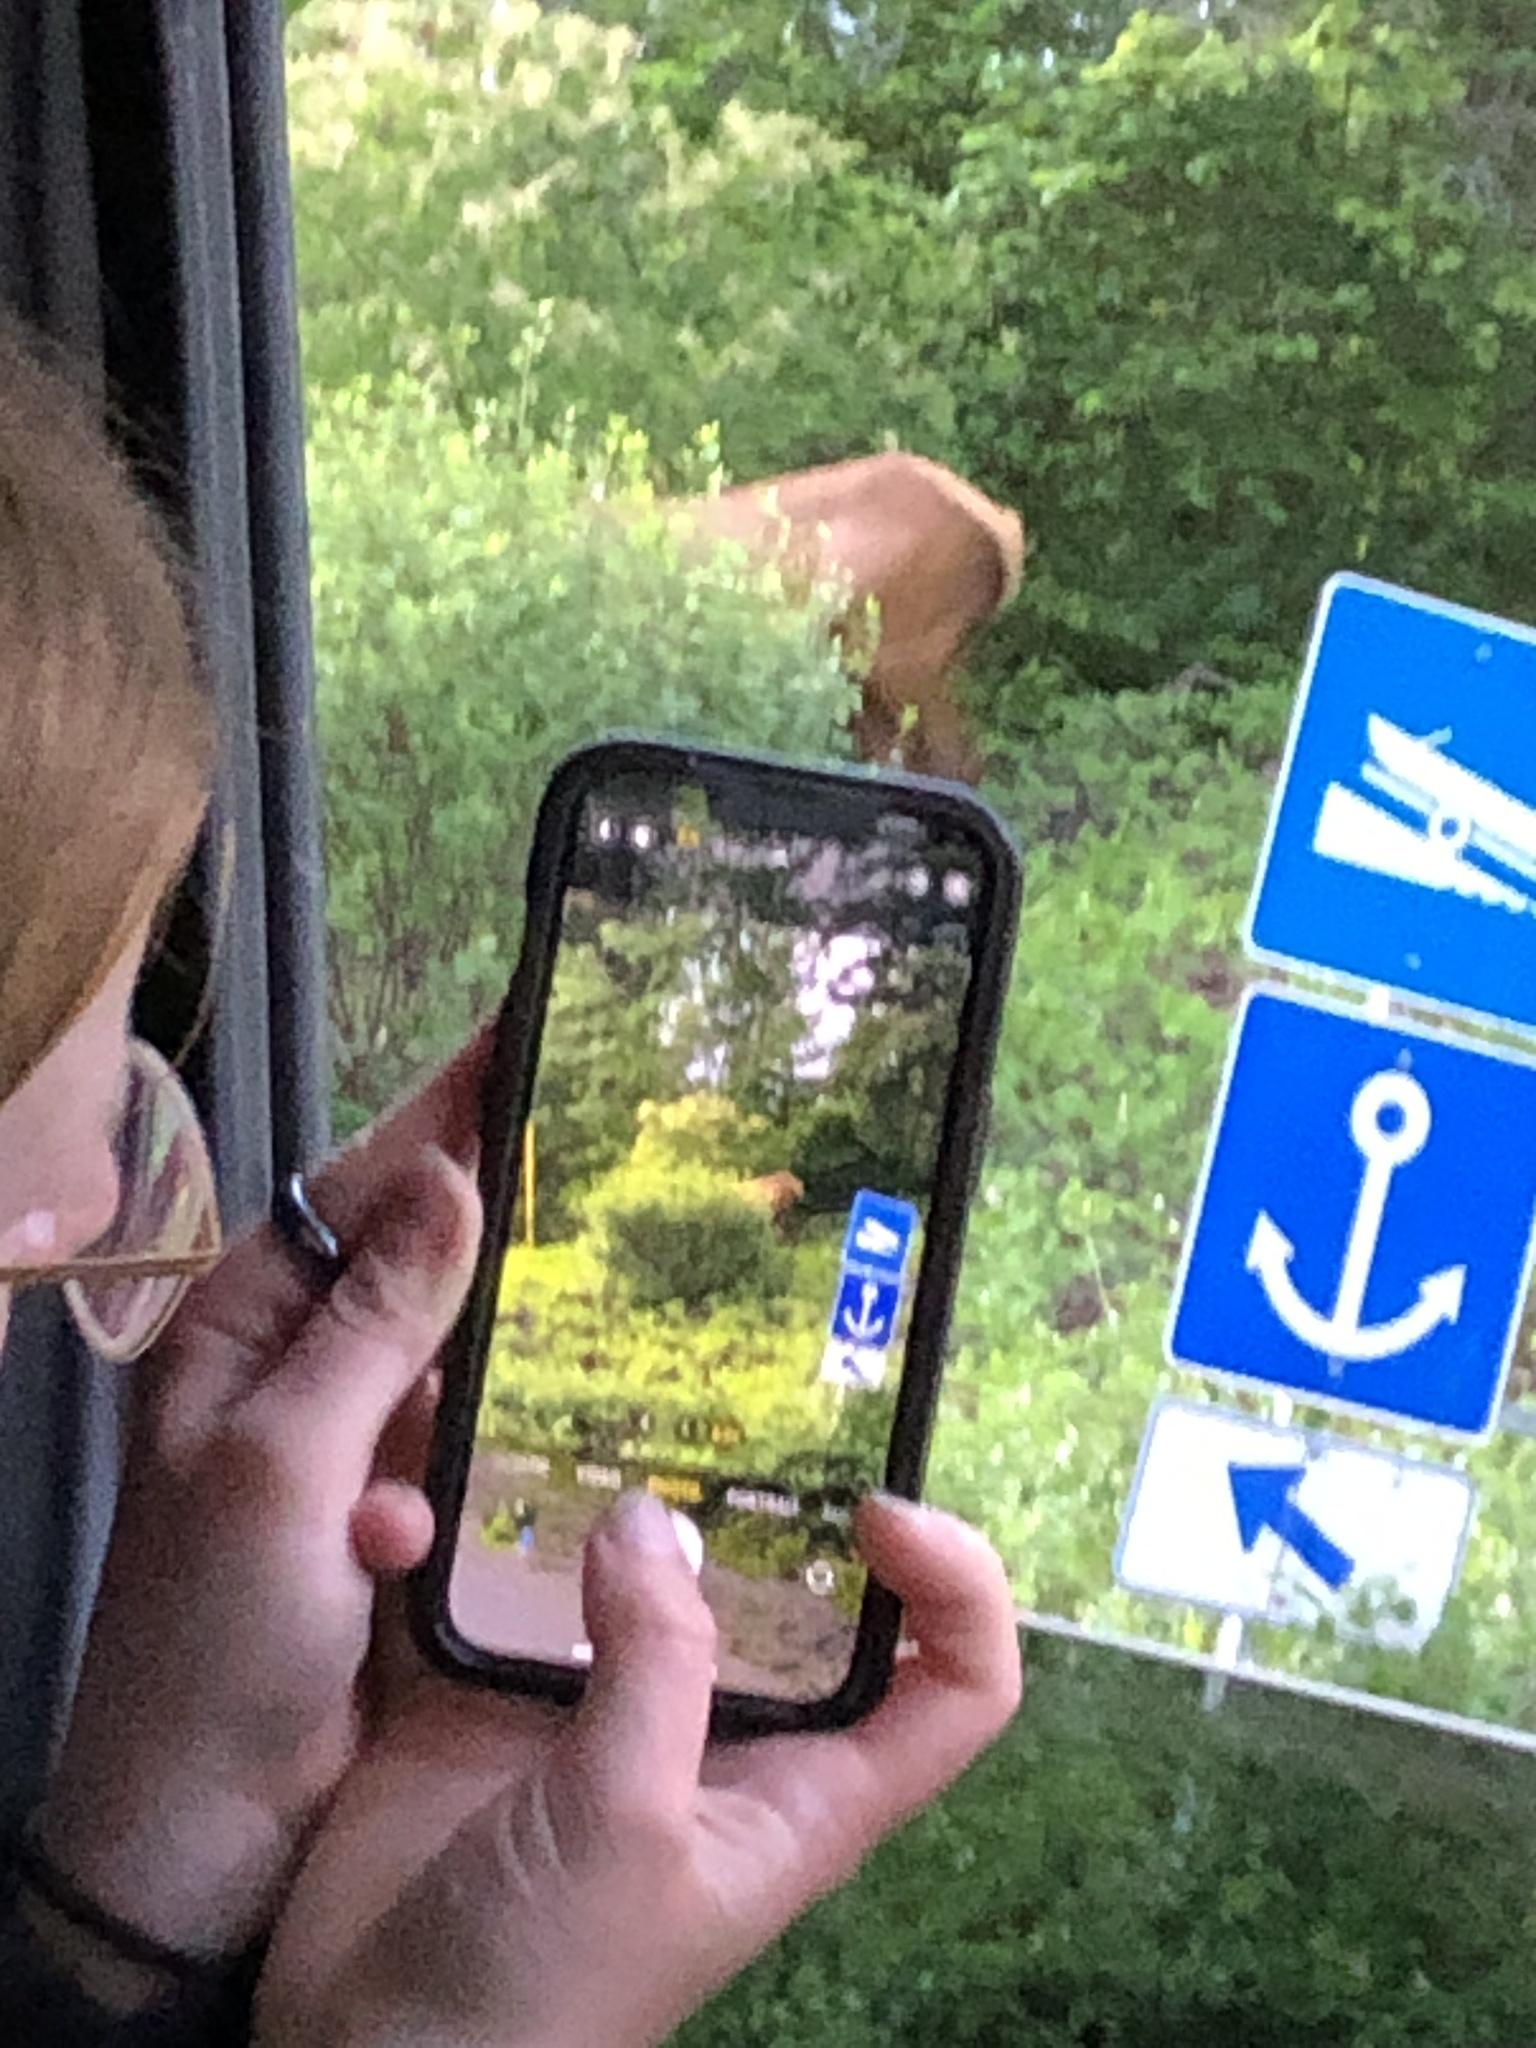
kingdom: Animalia
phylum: Chordata
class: Mammalia
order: Artiodactyla
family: Cervidae
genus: Cervus
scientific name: Cervus elaphus
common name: Red deer
